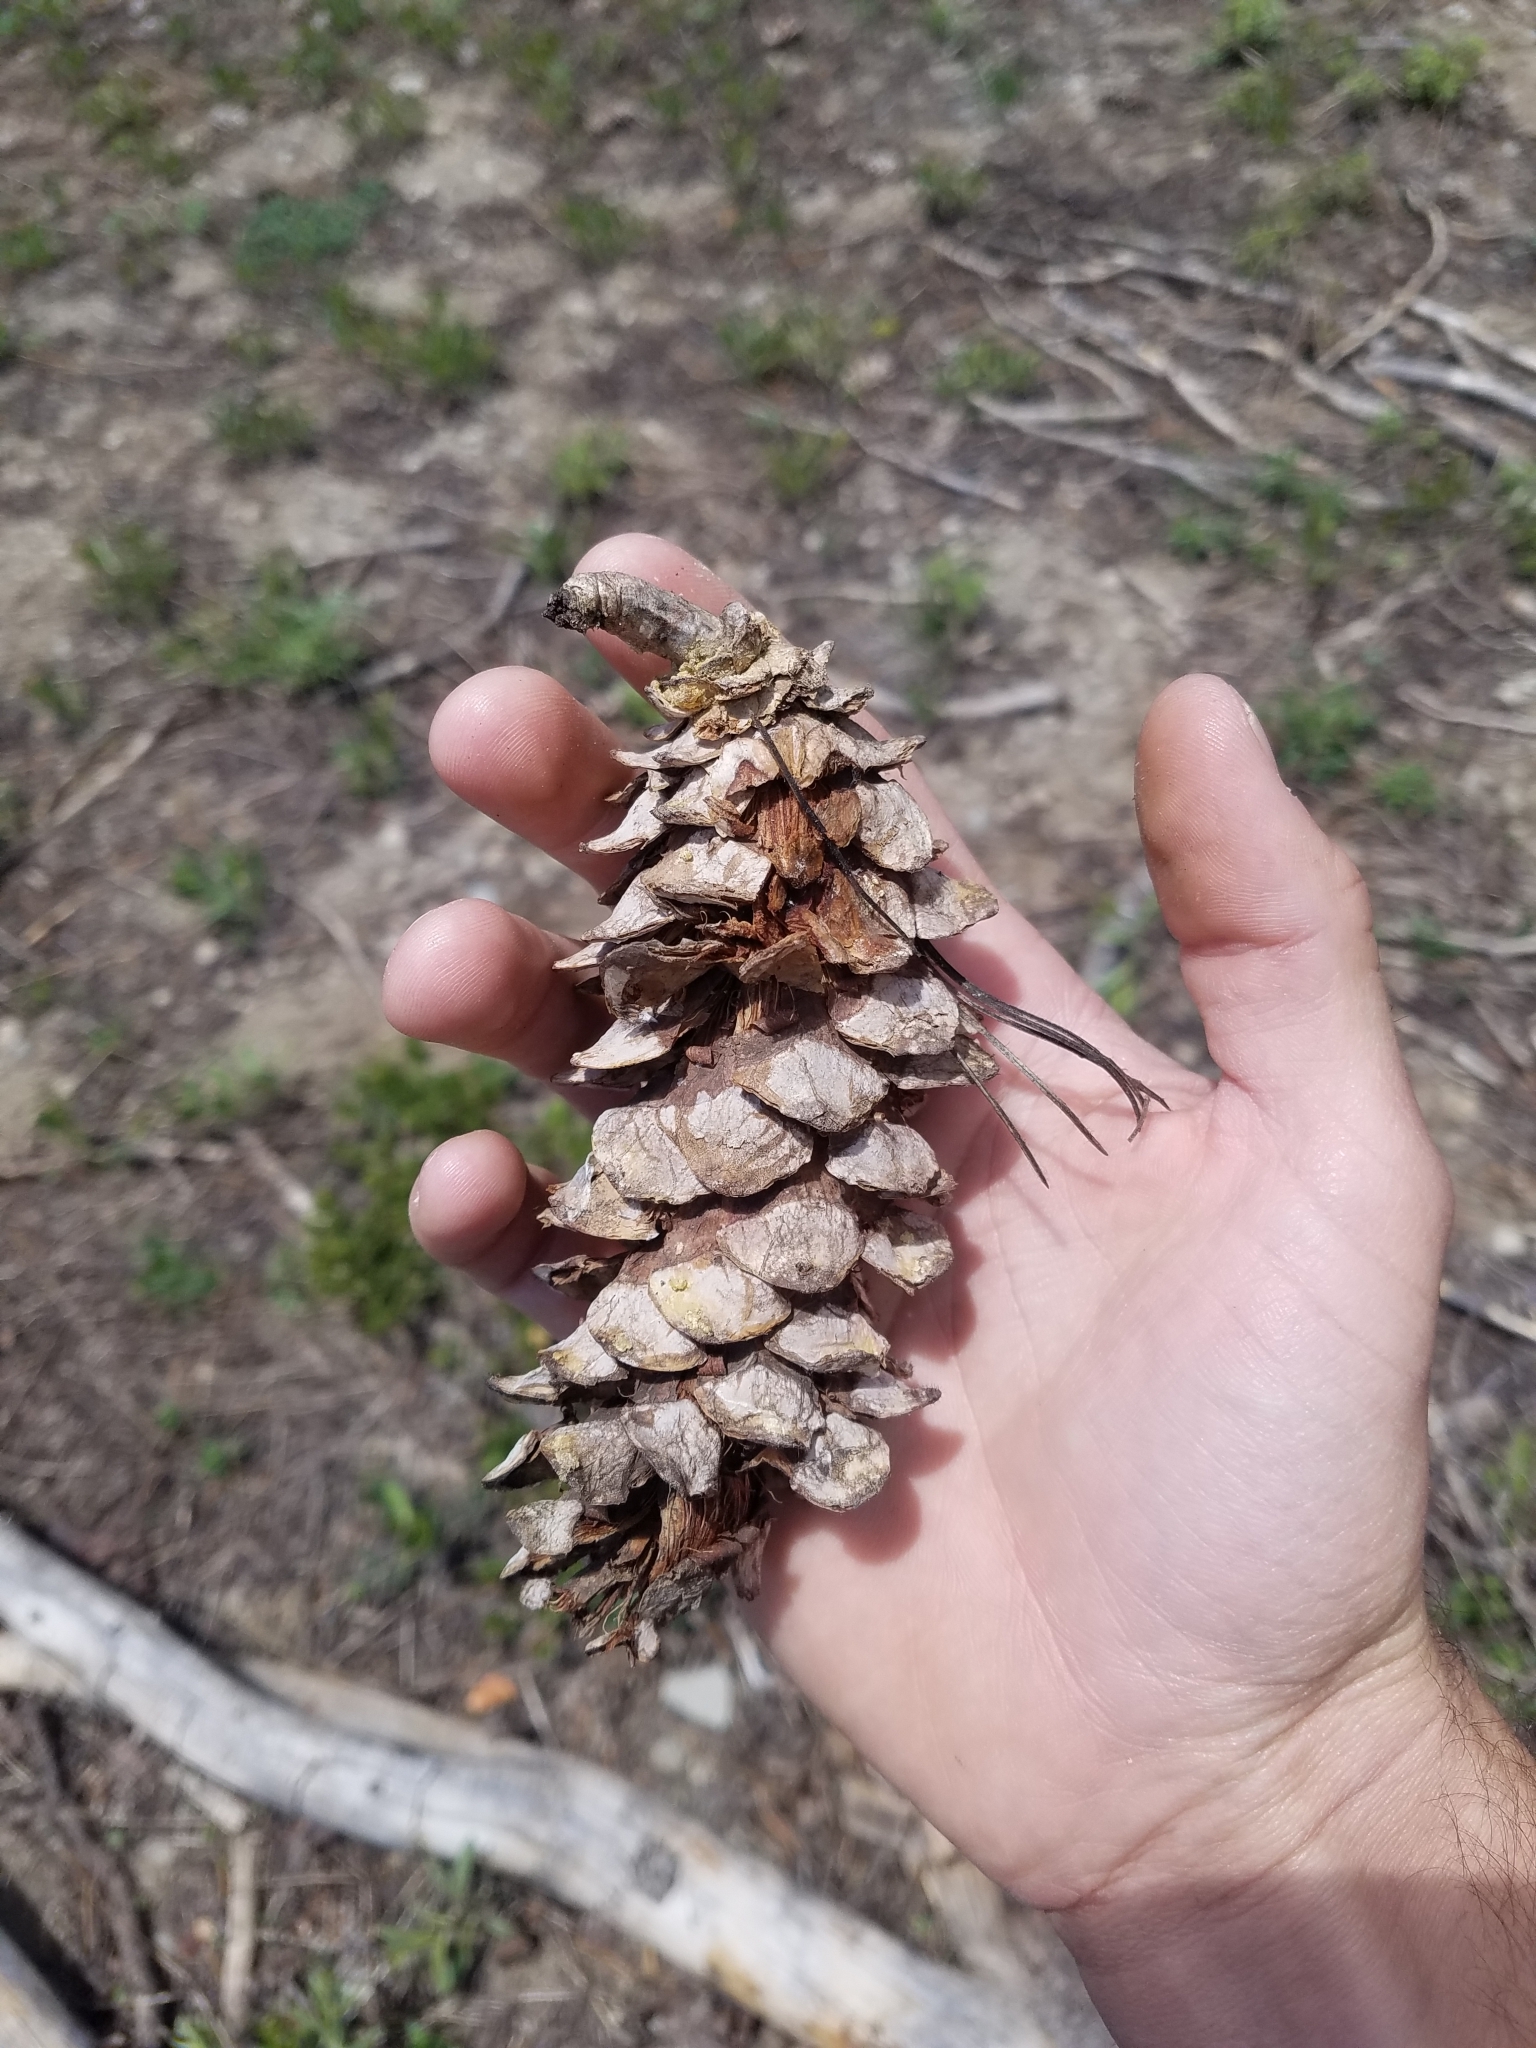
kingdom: Plantae
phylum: Tracheophyta
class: Pinopsida
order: Pinales
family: Pinaceae
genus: Pinus
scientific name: Pinus monticola
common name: Western white pine
